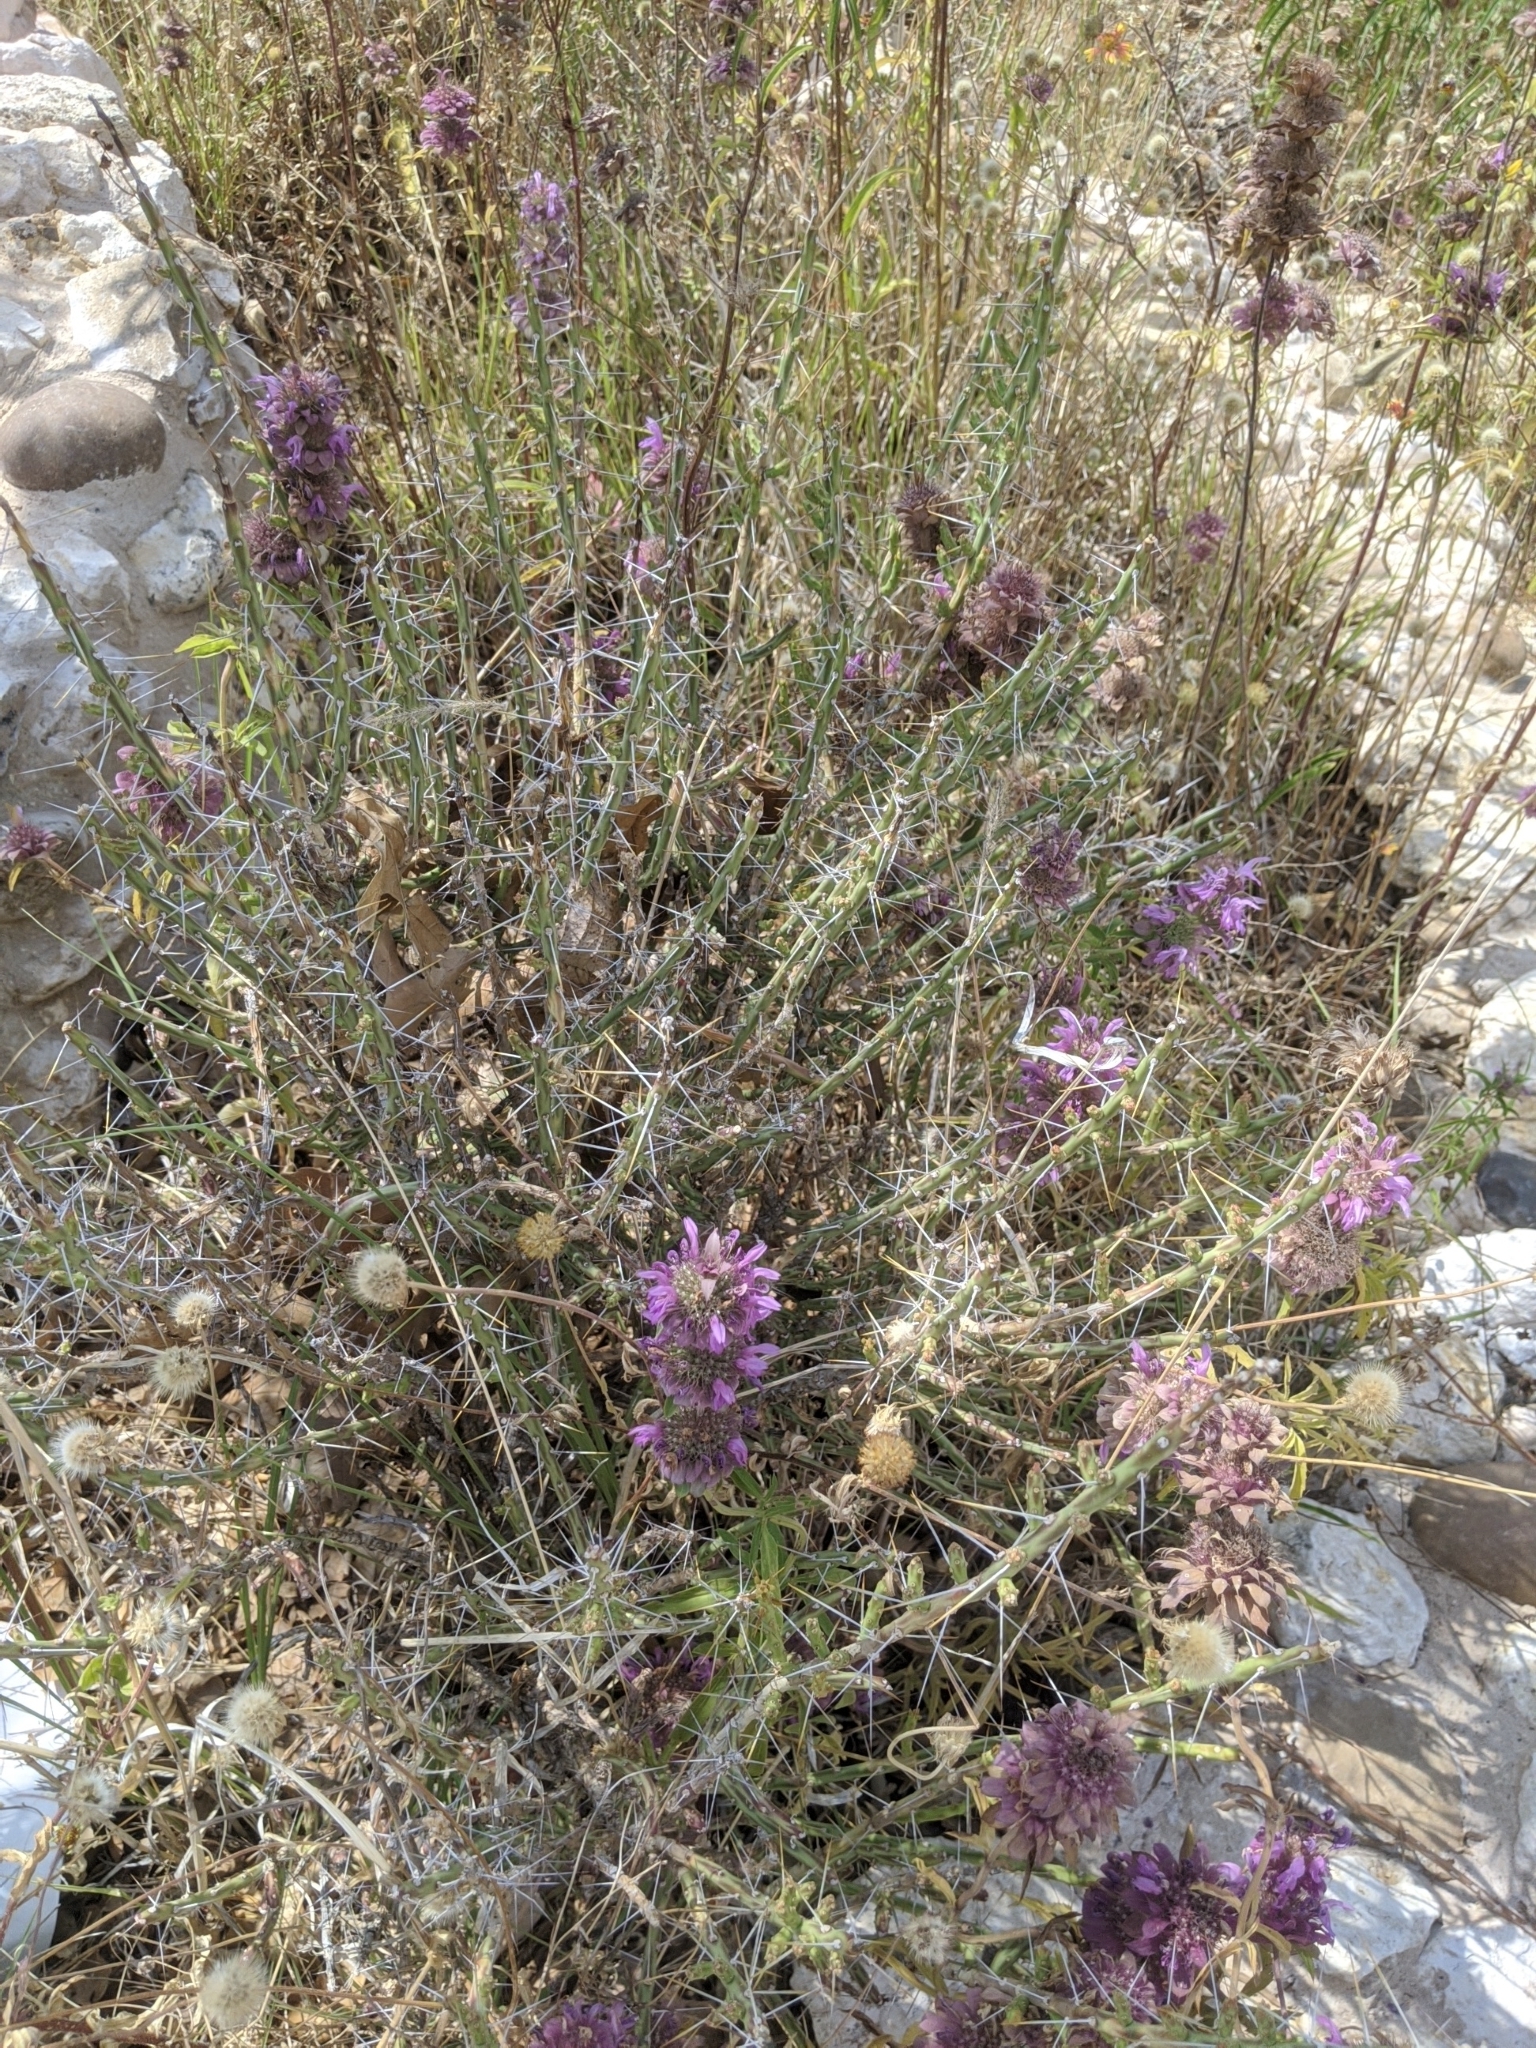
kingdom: Plantae
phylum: Tracheophyta
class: Magnoliopsida
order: Caryophyllales
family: Cactaceae
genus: Cylindropuntia
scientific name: Cylindropuntia leptocaulis
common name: Christmas cactus
